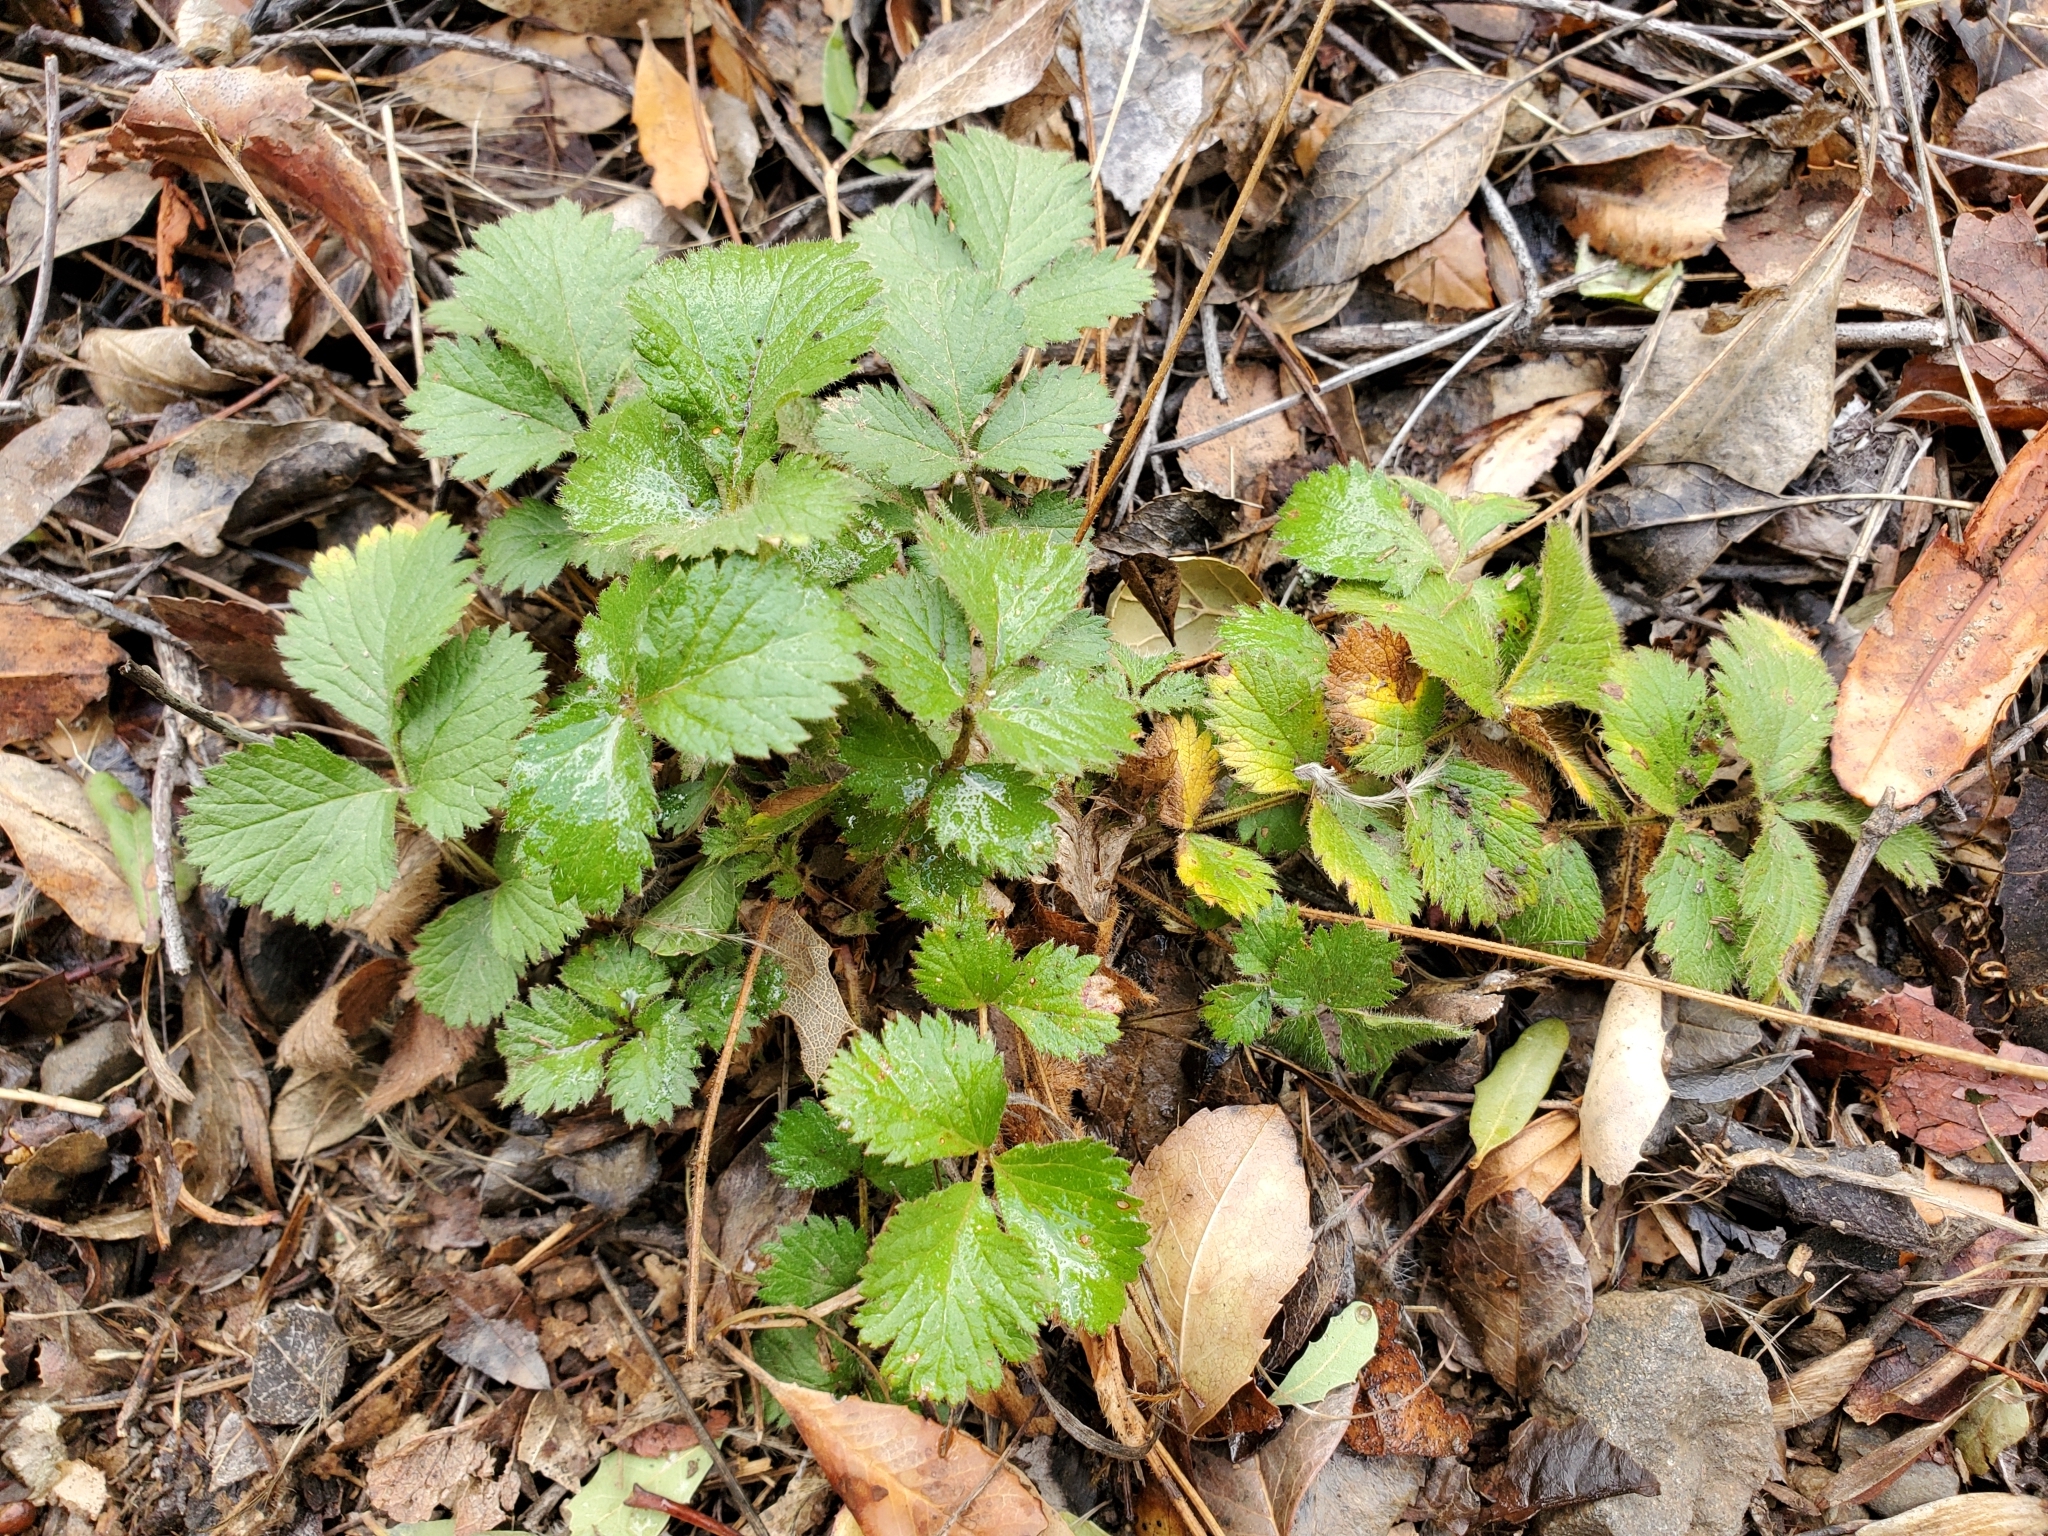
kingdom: Plantae
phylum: Tracheophyta
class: Magnoliopsida
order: Rosales
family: Rosaceae
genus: Drymocallis
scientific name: Drymocallis glandulosa
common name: Sticky cinquefoil
